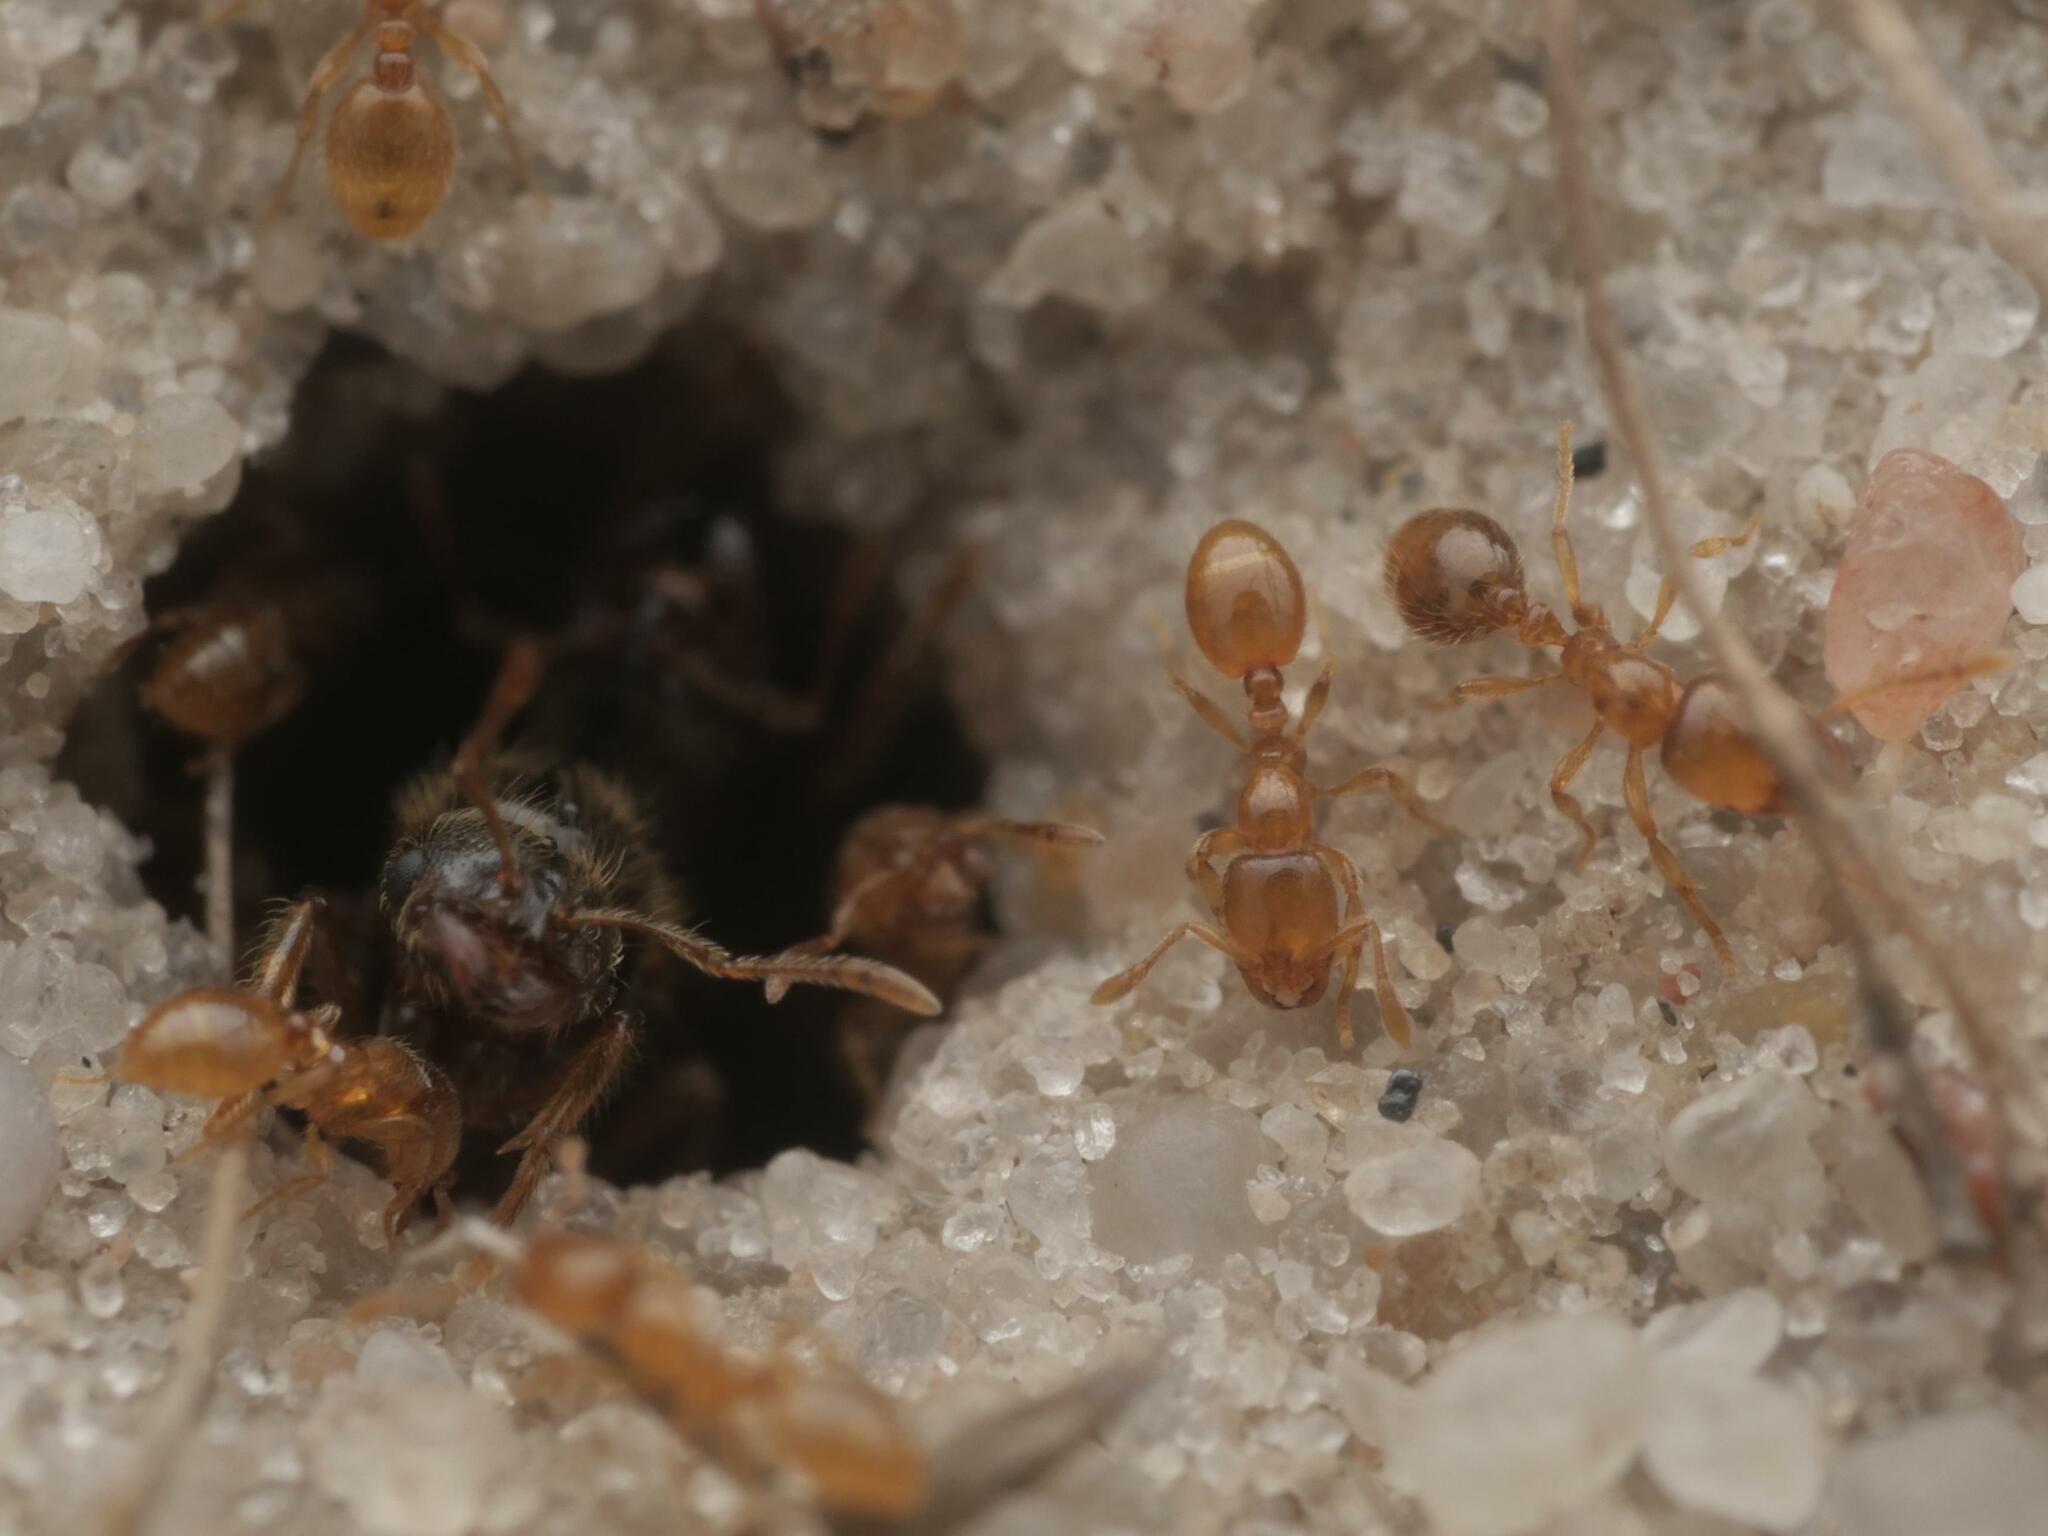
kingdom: Animalia
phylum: Arthropoda
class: Insecta
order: Hymenoptera
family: Formicidae
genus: Solenopsis
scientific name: Solenopsis fugax
